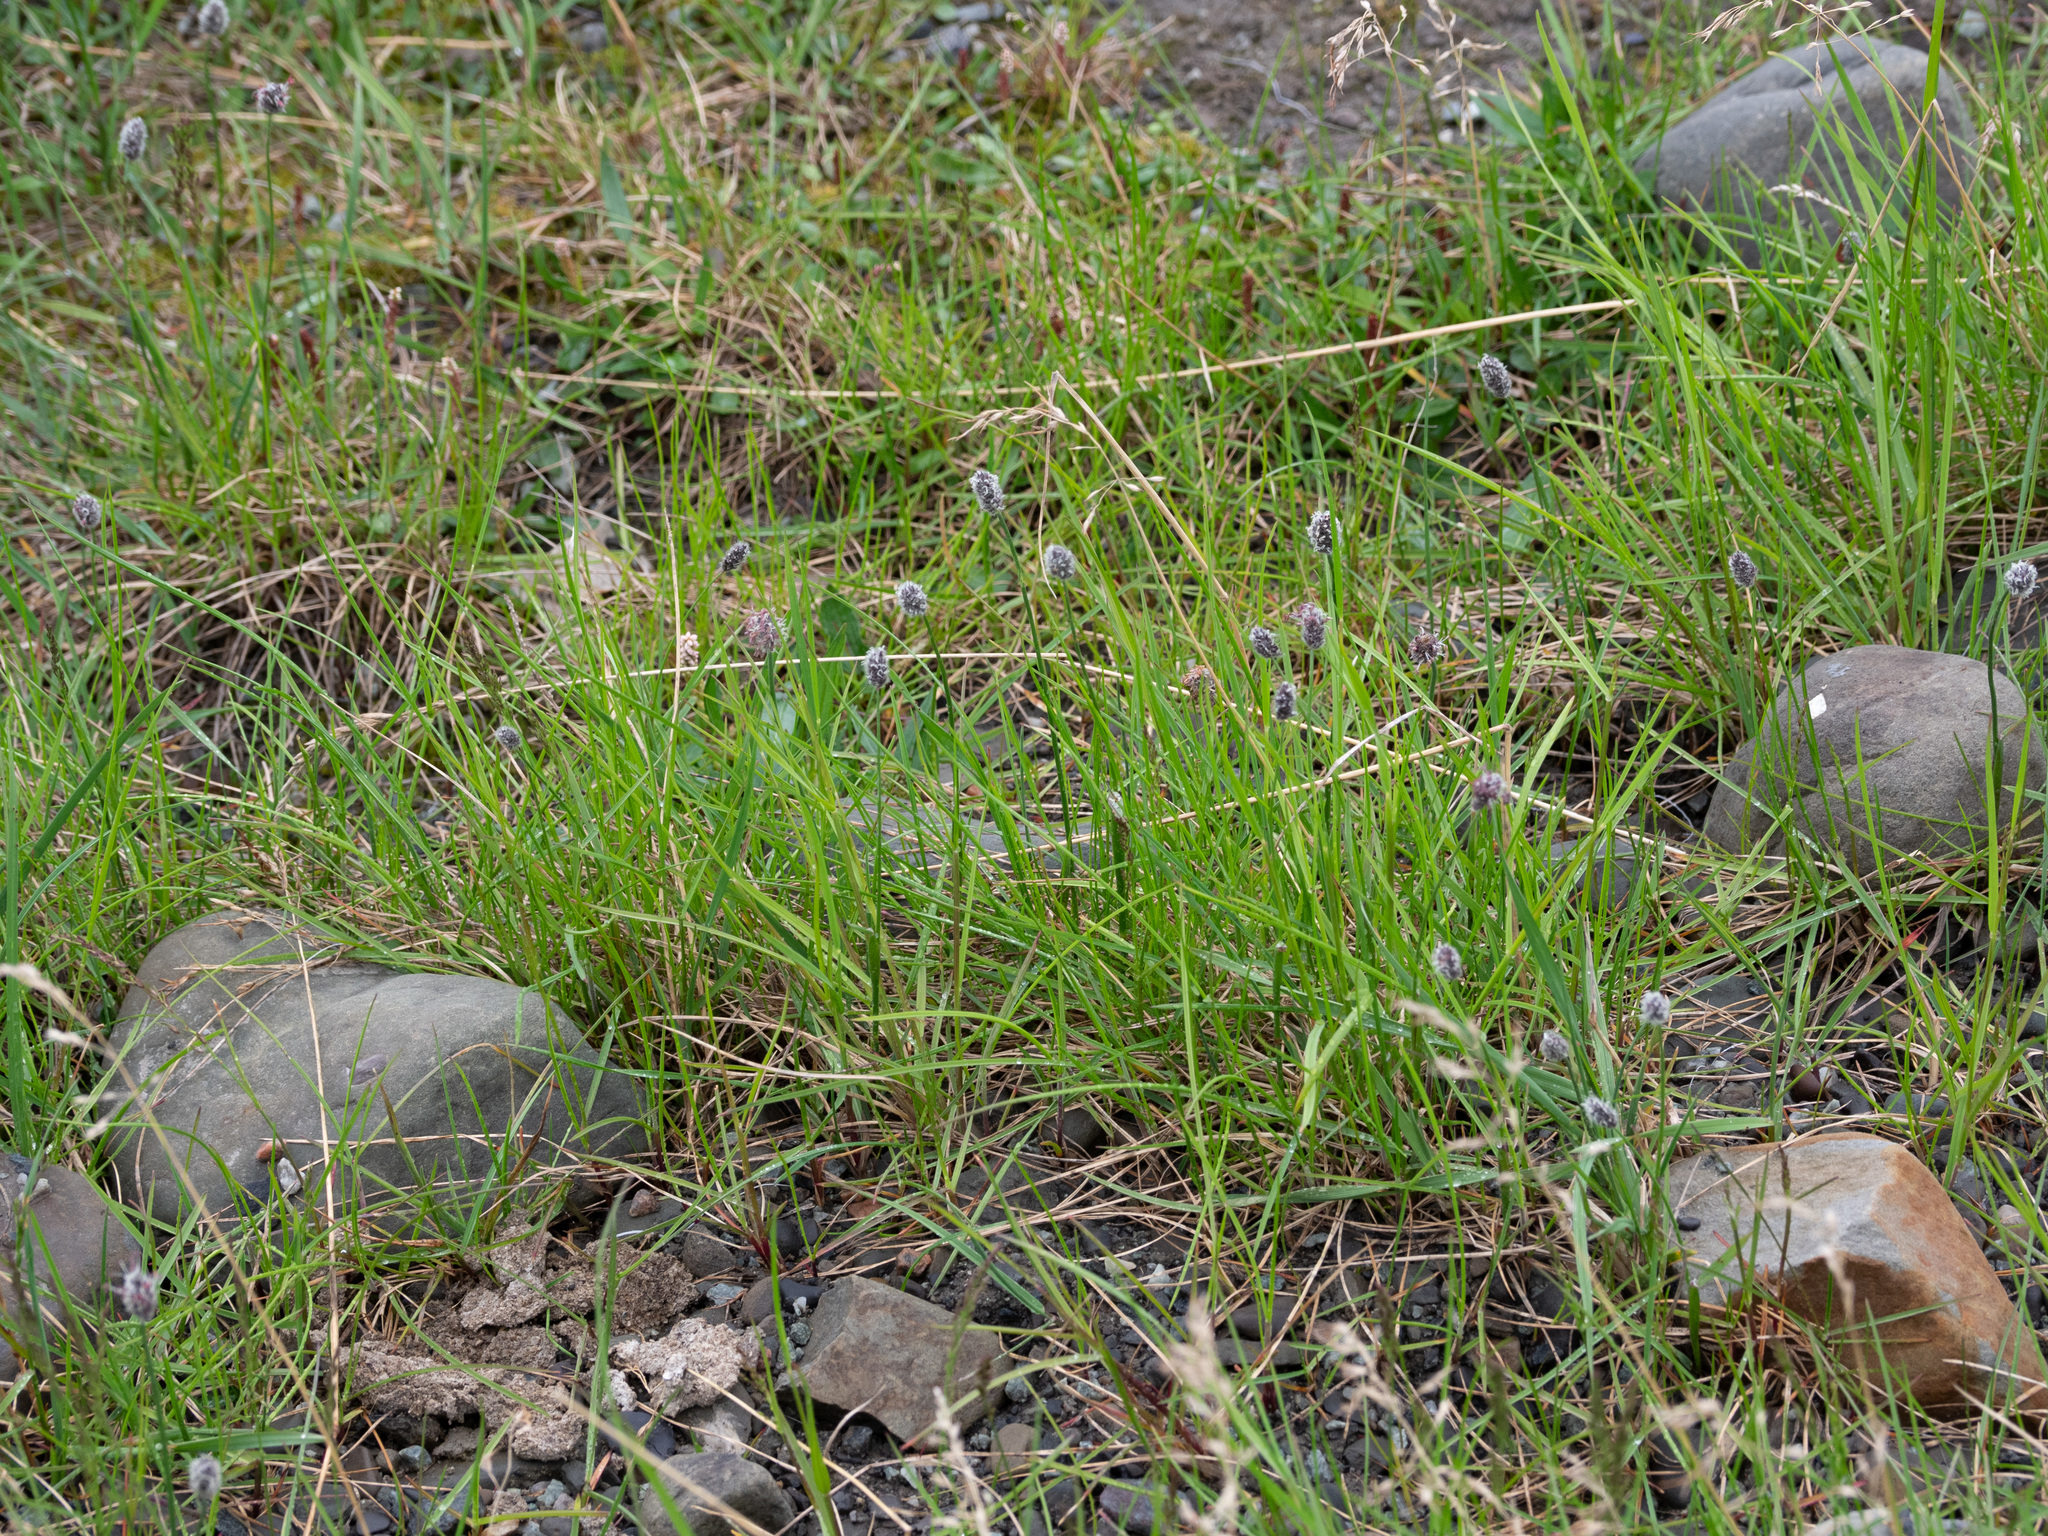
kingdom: Plantae
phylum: Tracheophyta
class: Liliopsida
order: Poales
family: Poaceae
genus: Alopecurus
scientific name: Alopecurus magellanicus
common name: Alpine foxtail
